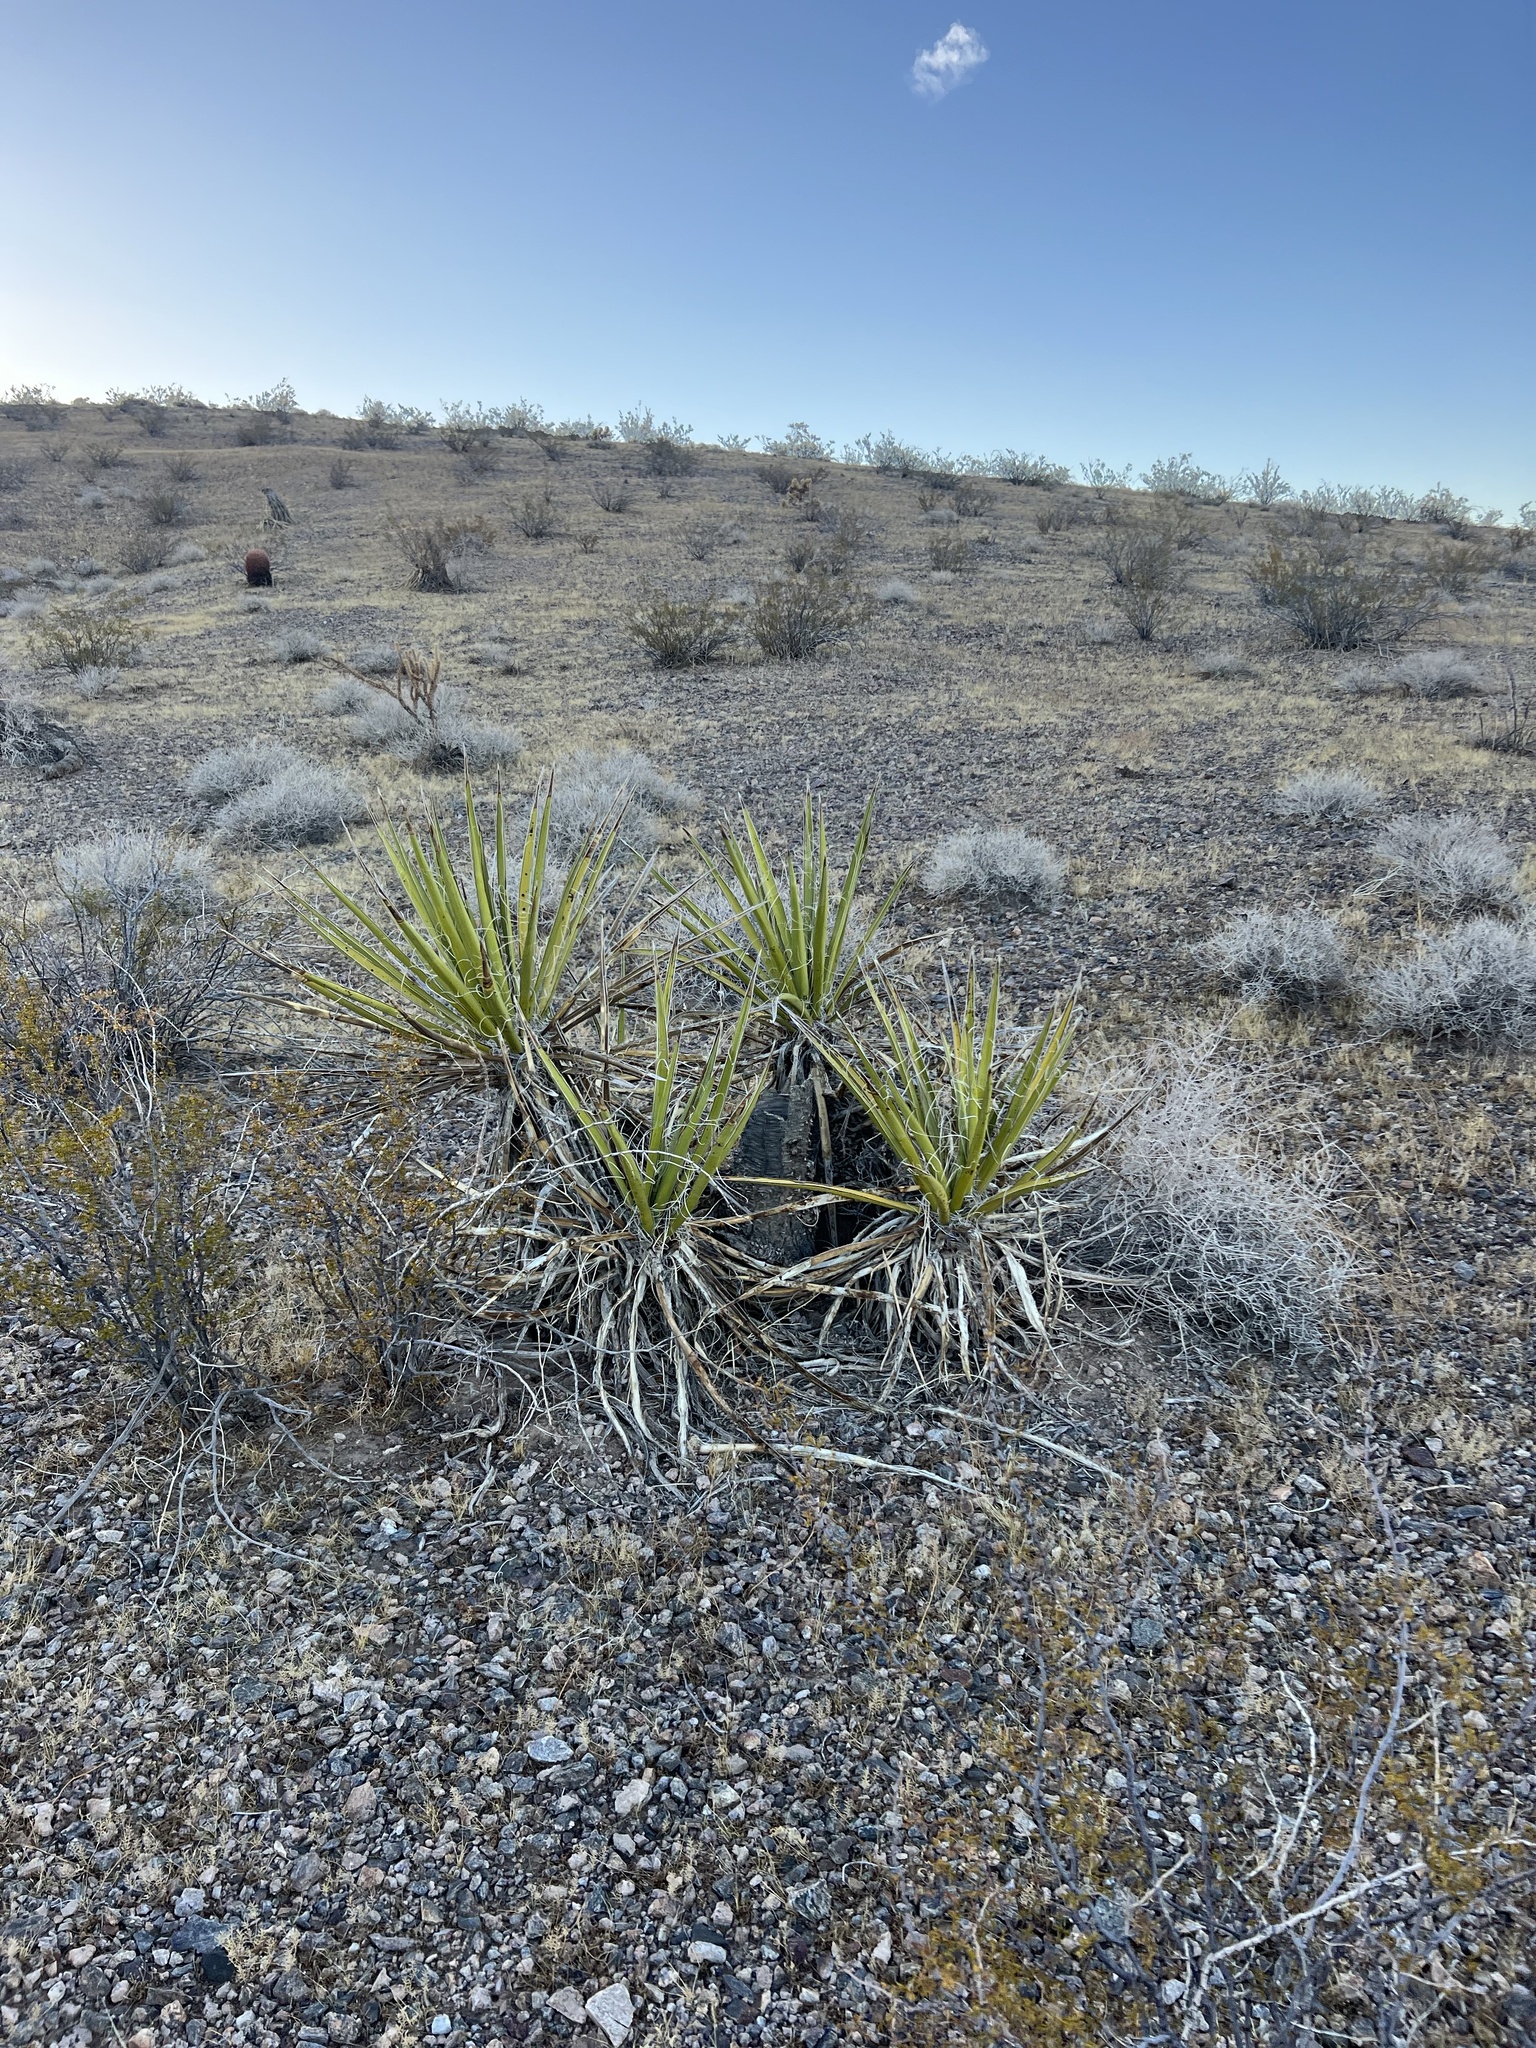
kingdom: Plantae
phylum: Tracheophyta
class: Liliopsida
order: Asparagales
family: Asparagaceae
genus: Yucca
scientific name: Yucca schidigera
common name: Mojave yucca
